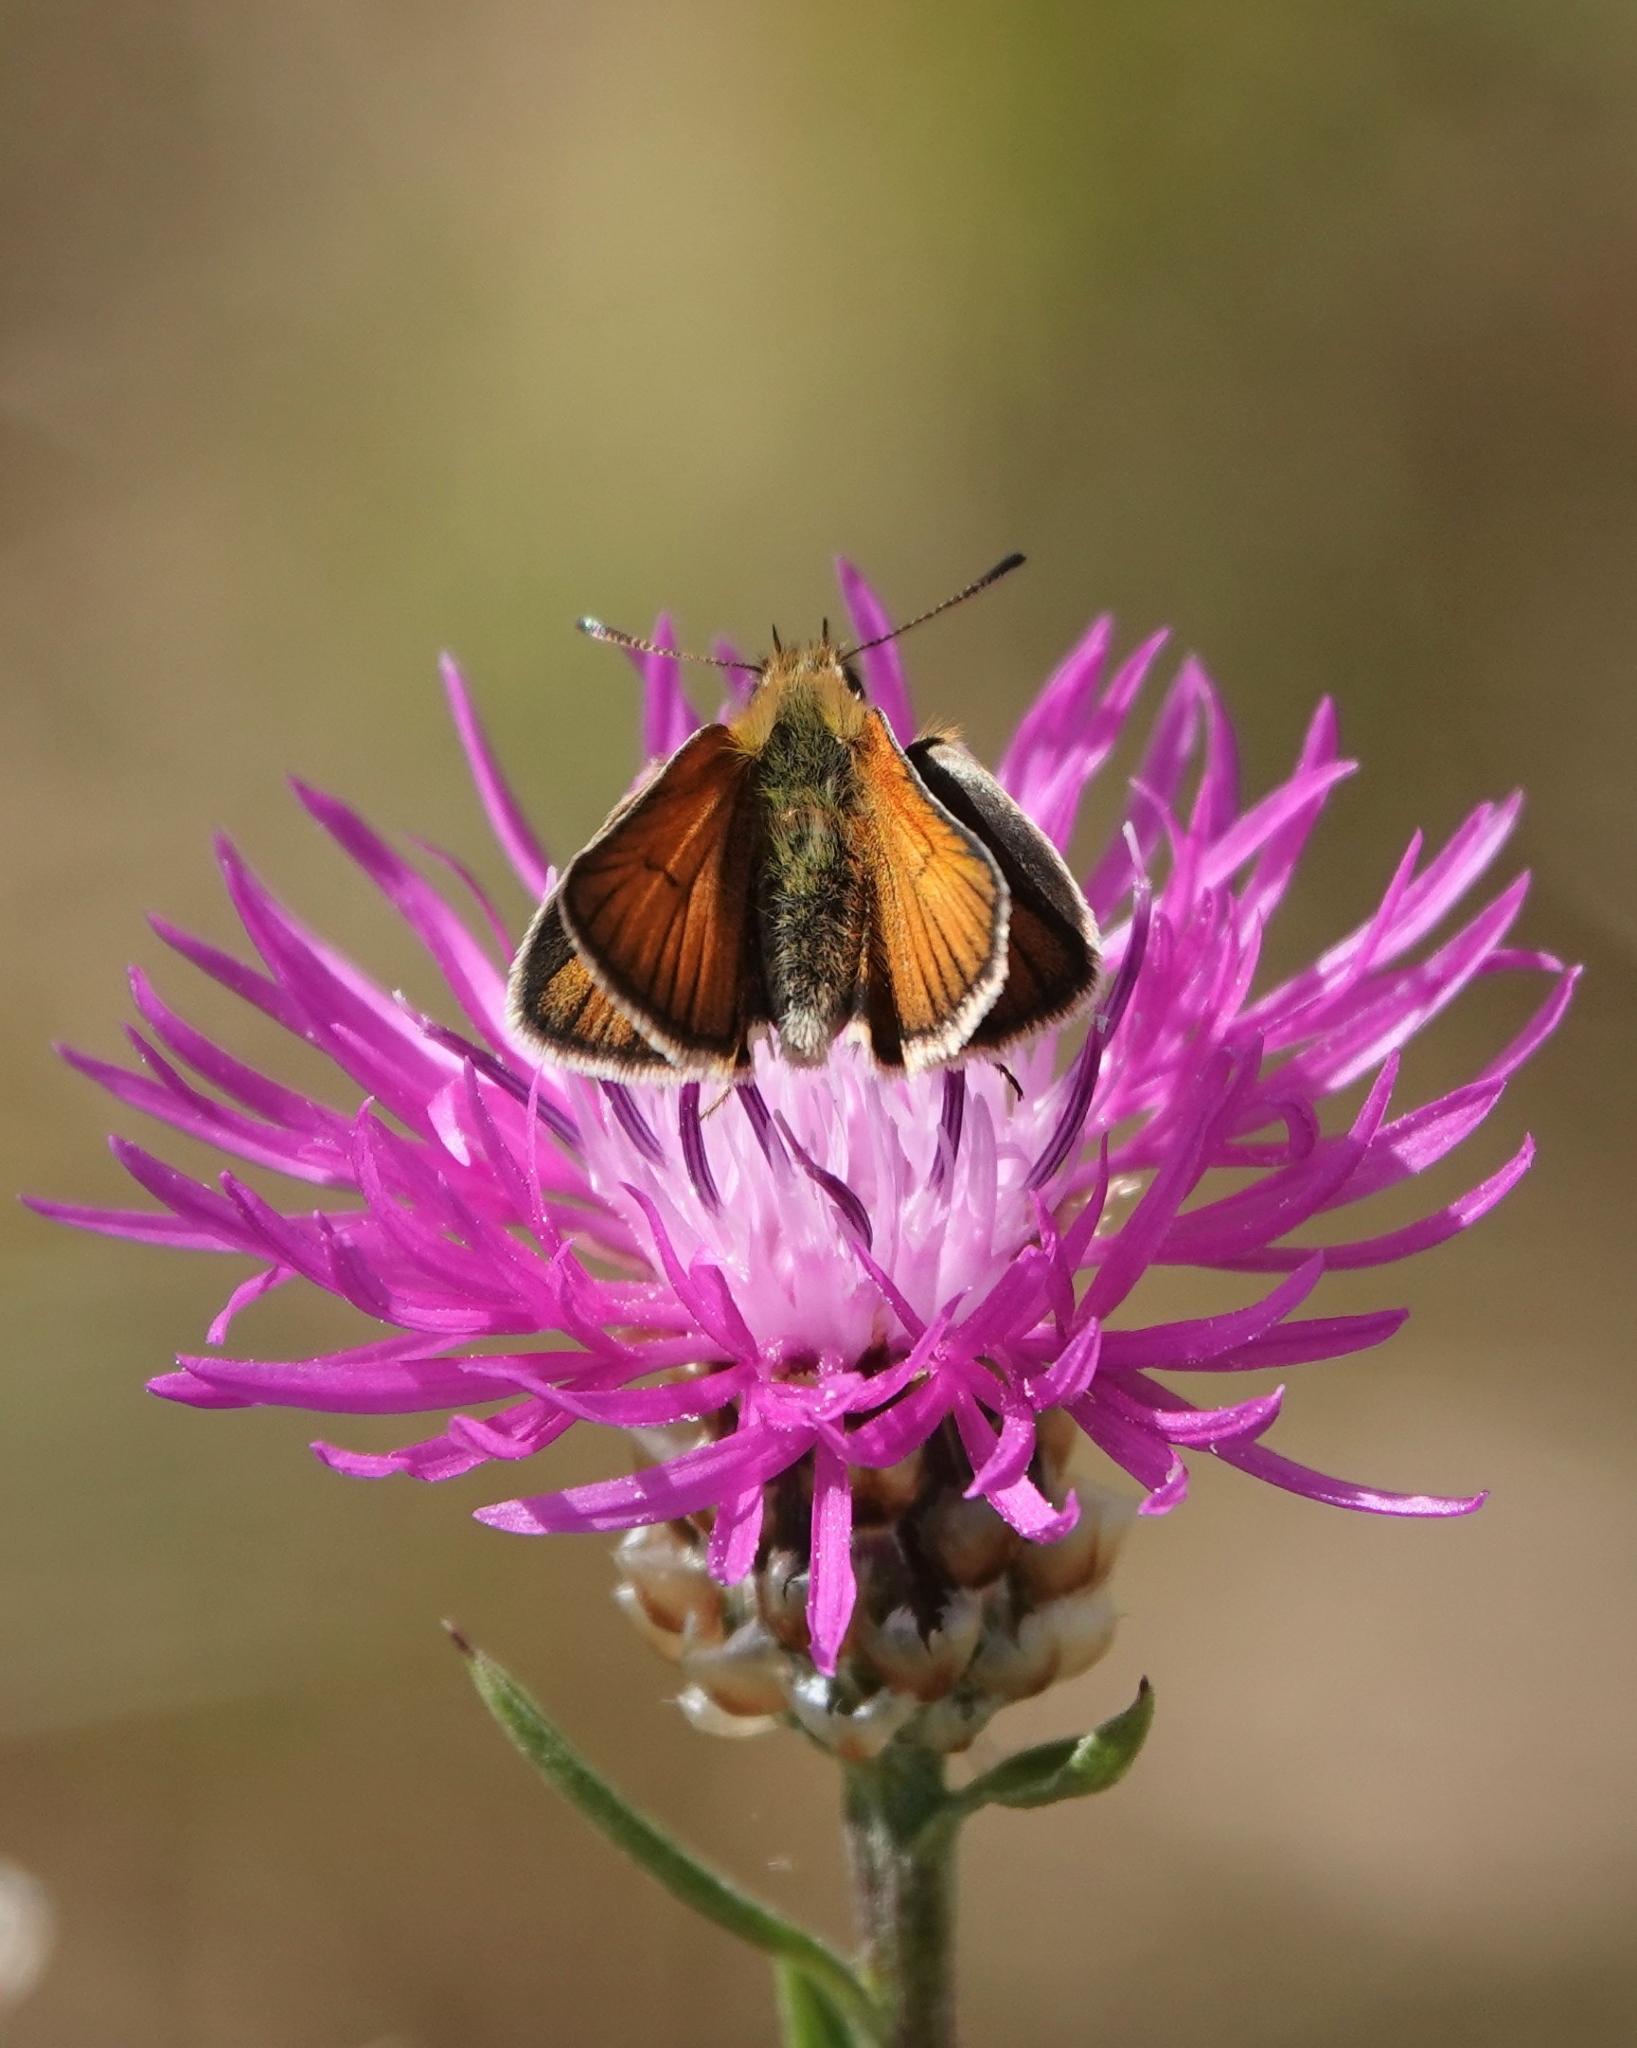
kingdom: Animalia
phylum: Arthropoda
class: Insecta
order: Lepidoptera
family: Hesperiidae
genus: Thymelicus
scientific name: Thymelicus lineola
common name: Essex skipper
